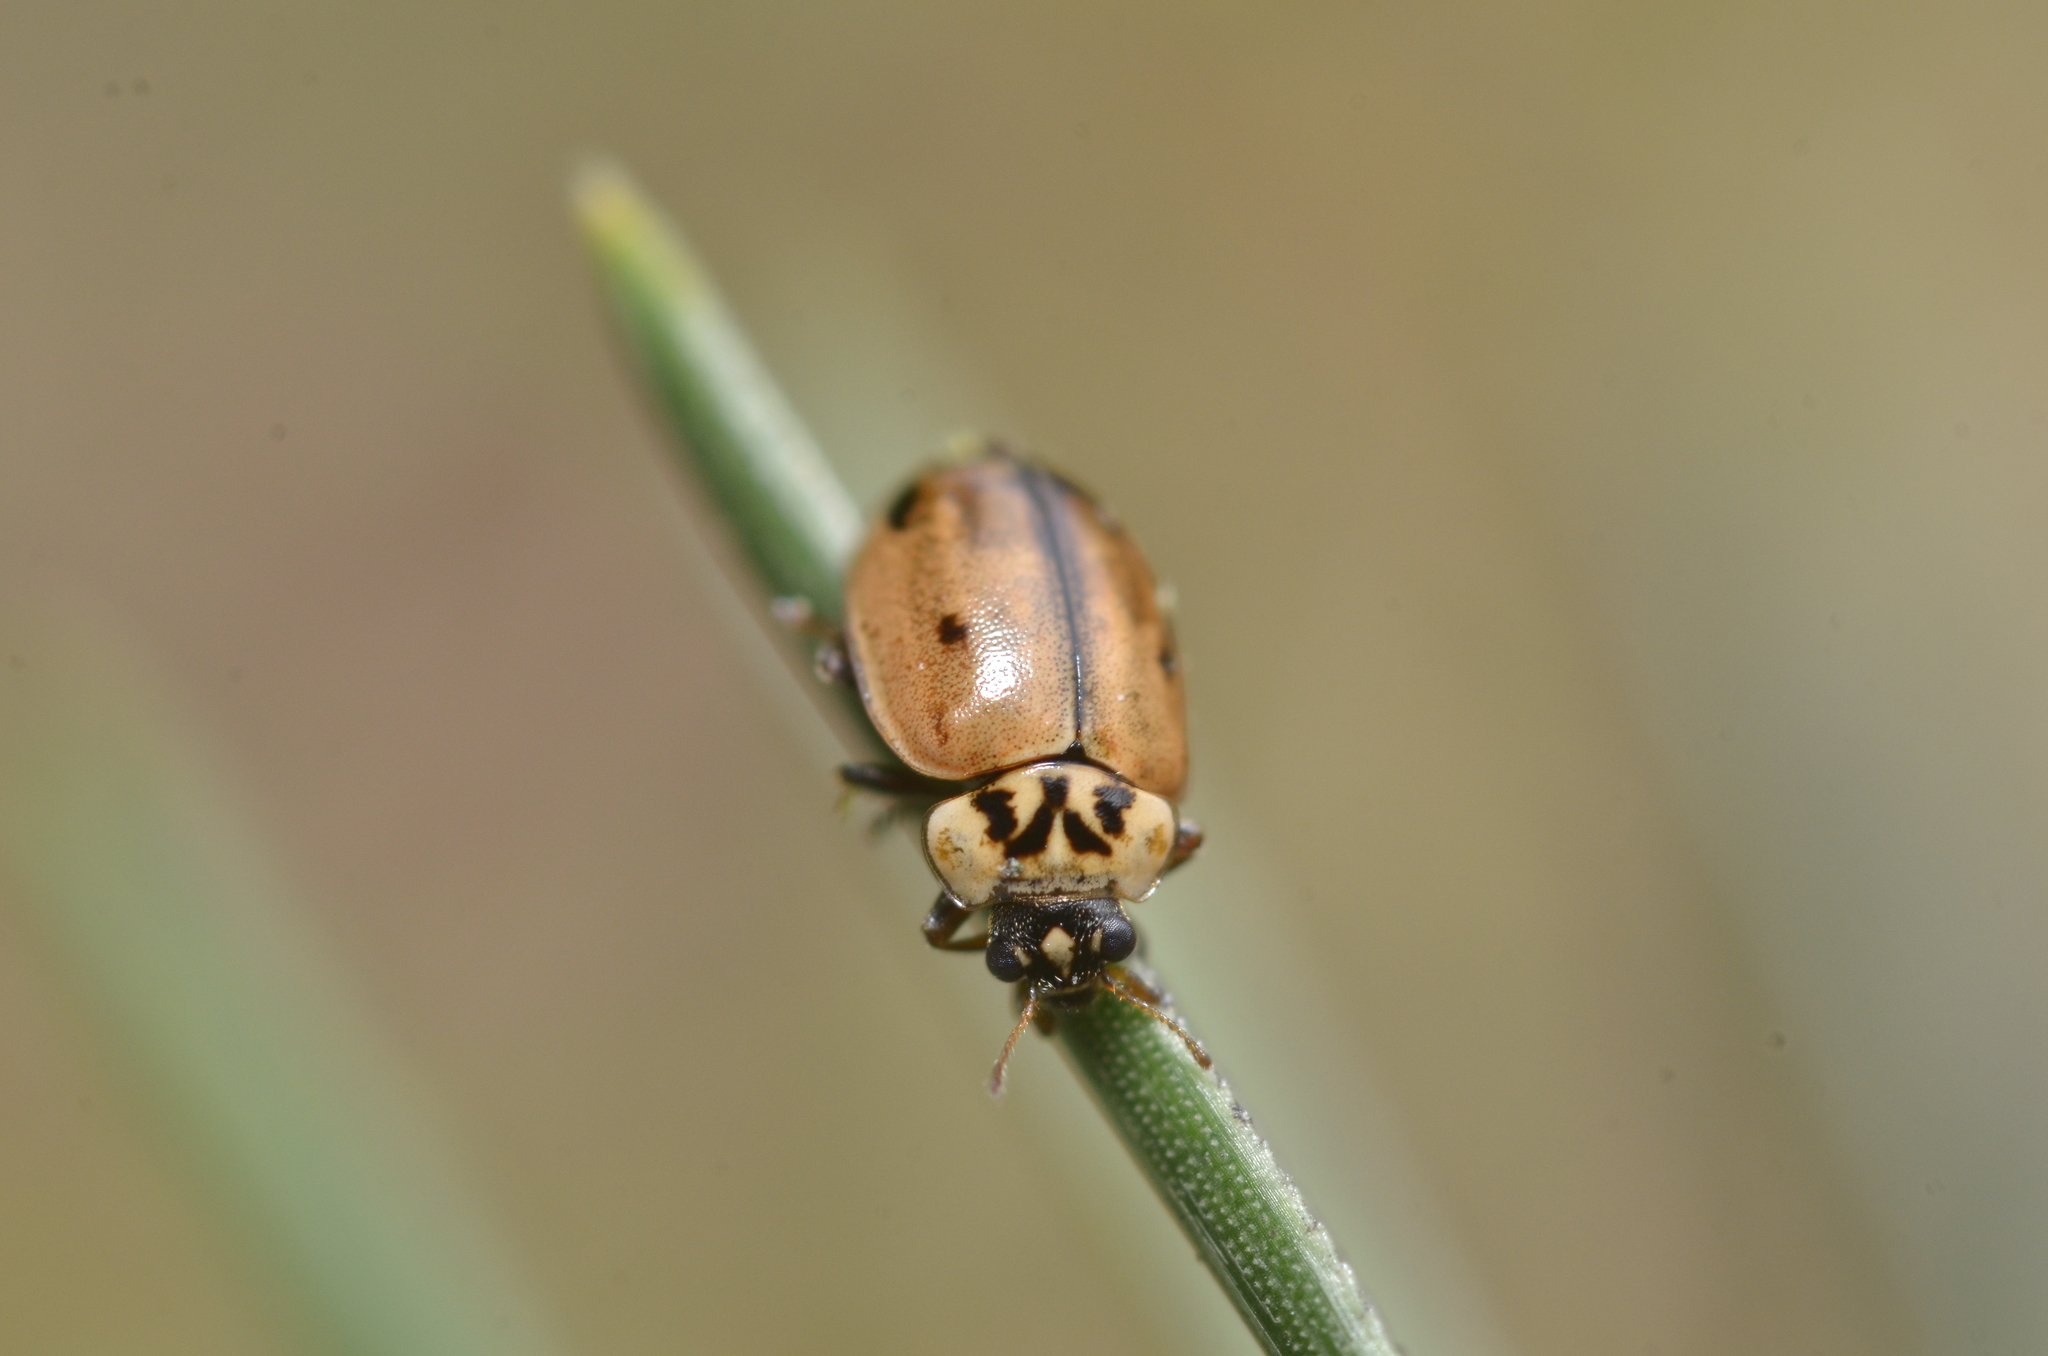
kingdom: Animalia
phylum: Arthropoda
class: Insecta
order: Coleoptera
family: Coccinellidae
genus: Aphidecta
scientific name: Aphidecta obliterata
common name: Larch ladybird
